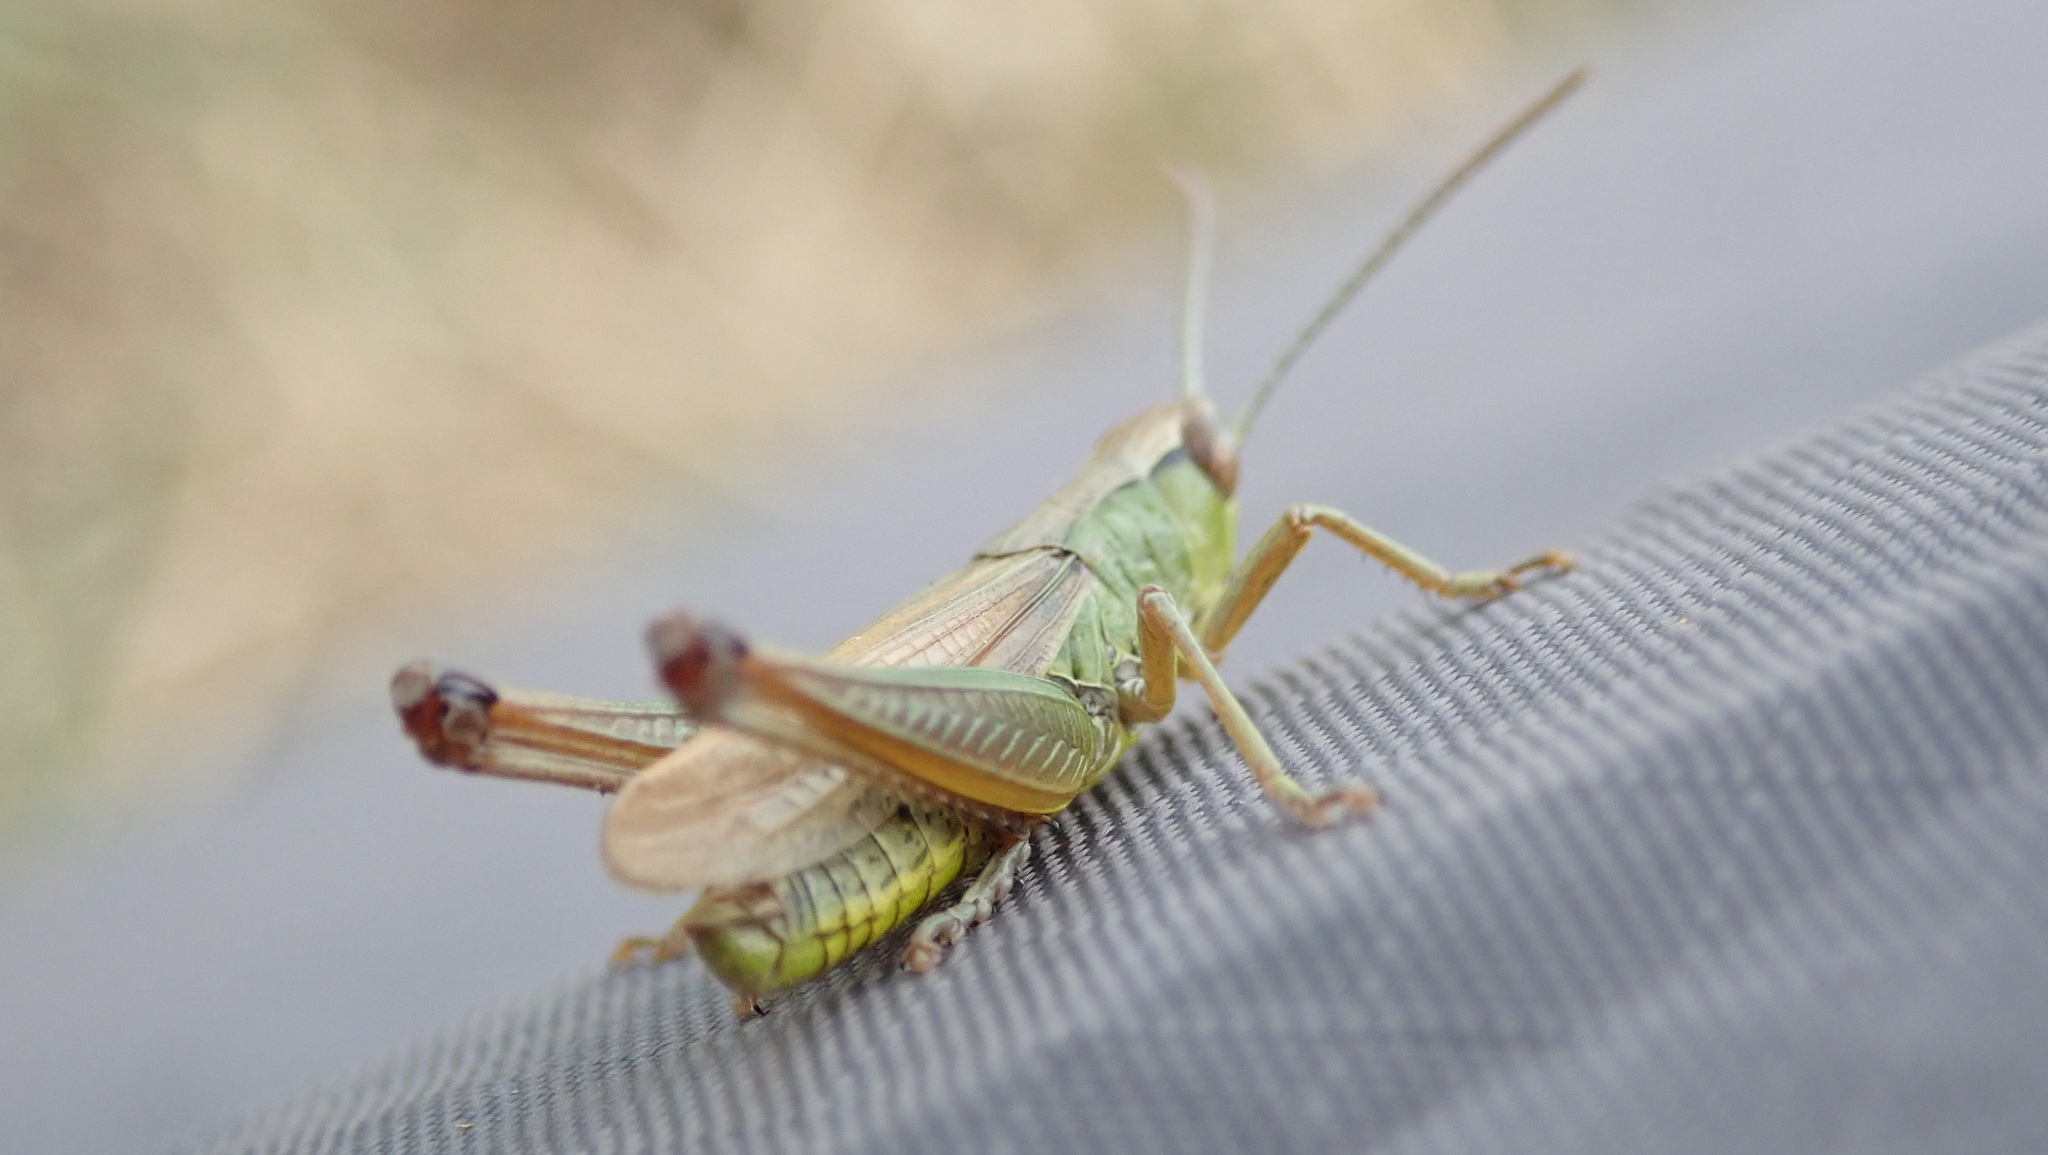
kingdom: Animalia
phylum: Arthropoda
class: Insecta
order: Orthoptera
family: Acrididae
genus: Pseudochorthippus
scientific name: Pseudochorthippus parallelus
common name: Meadow grasshopper
